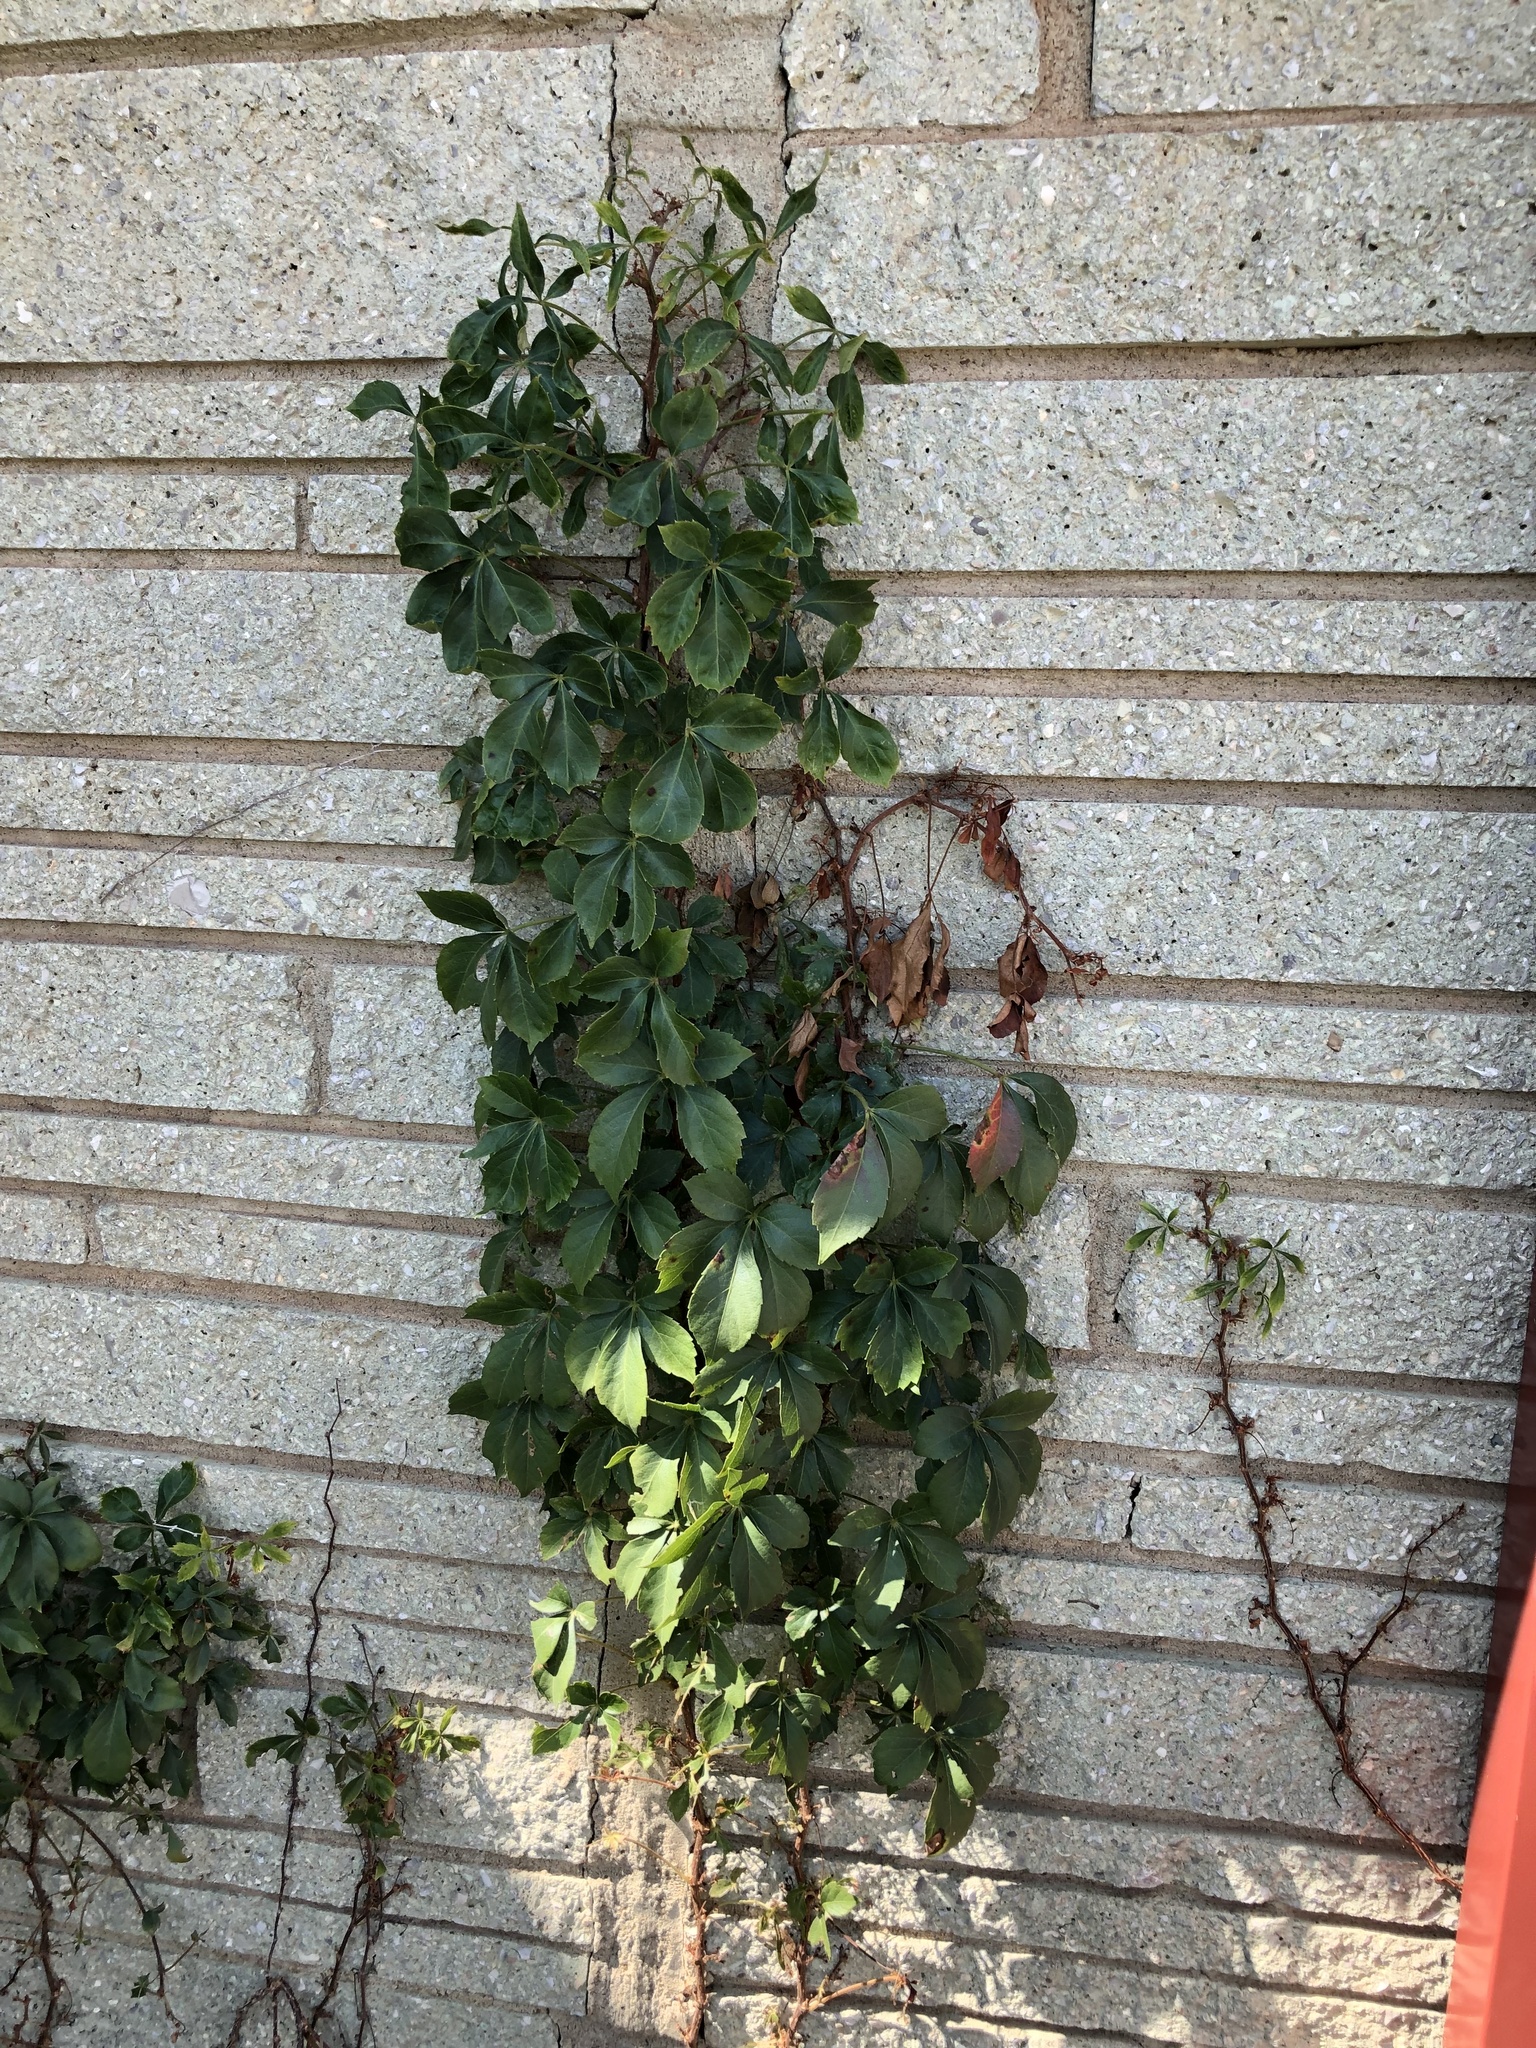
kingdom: Plantae
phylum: Tracheophyta
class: Magnoliopsida
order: Vitales
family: Vitaceae
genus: Parthenocissus
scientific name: Parthenocissus quinquefolia
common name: Virginia-creeper
